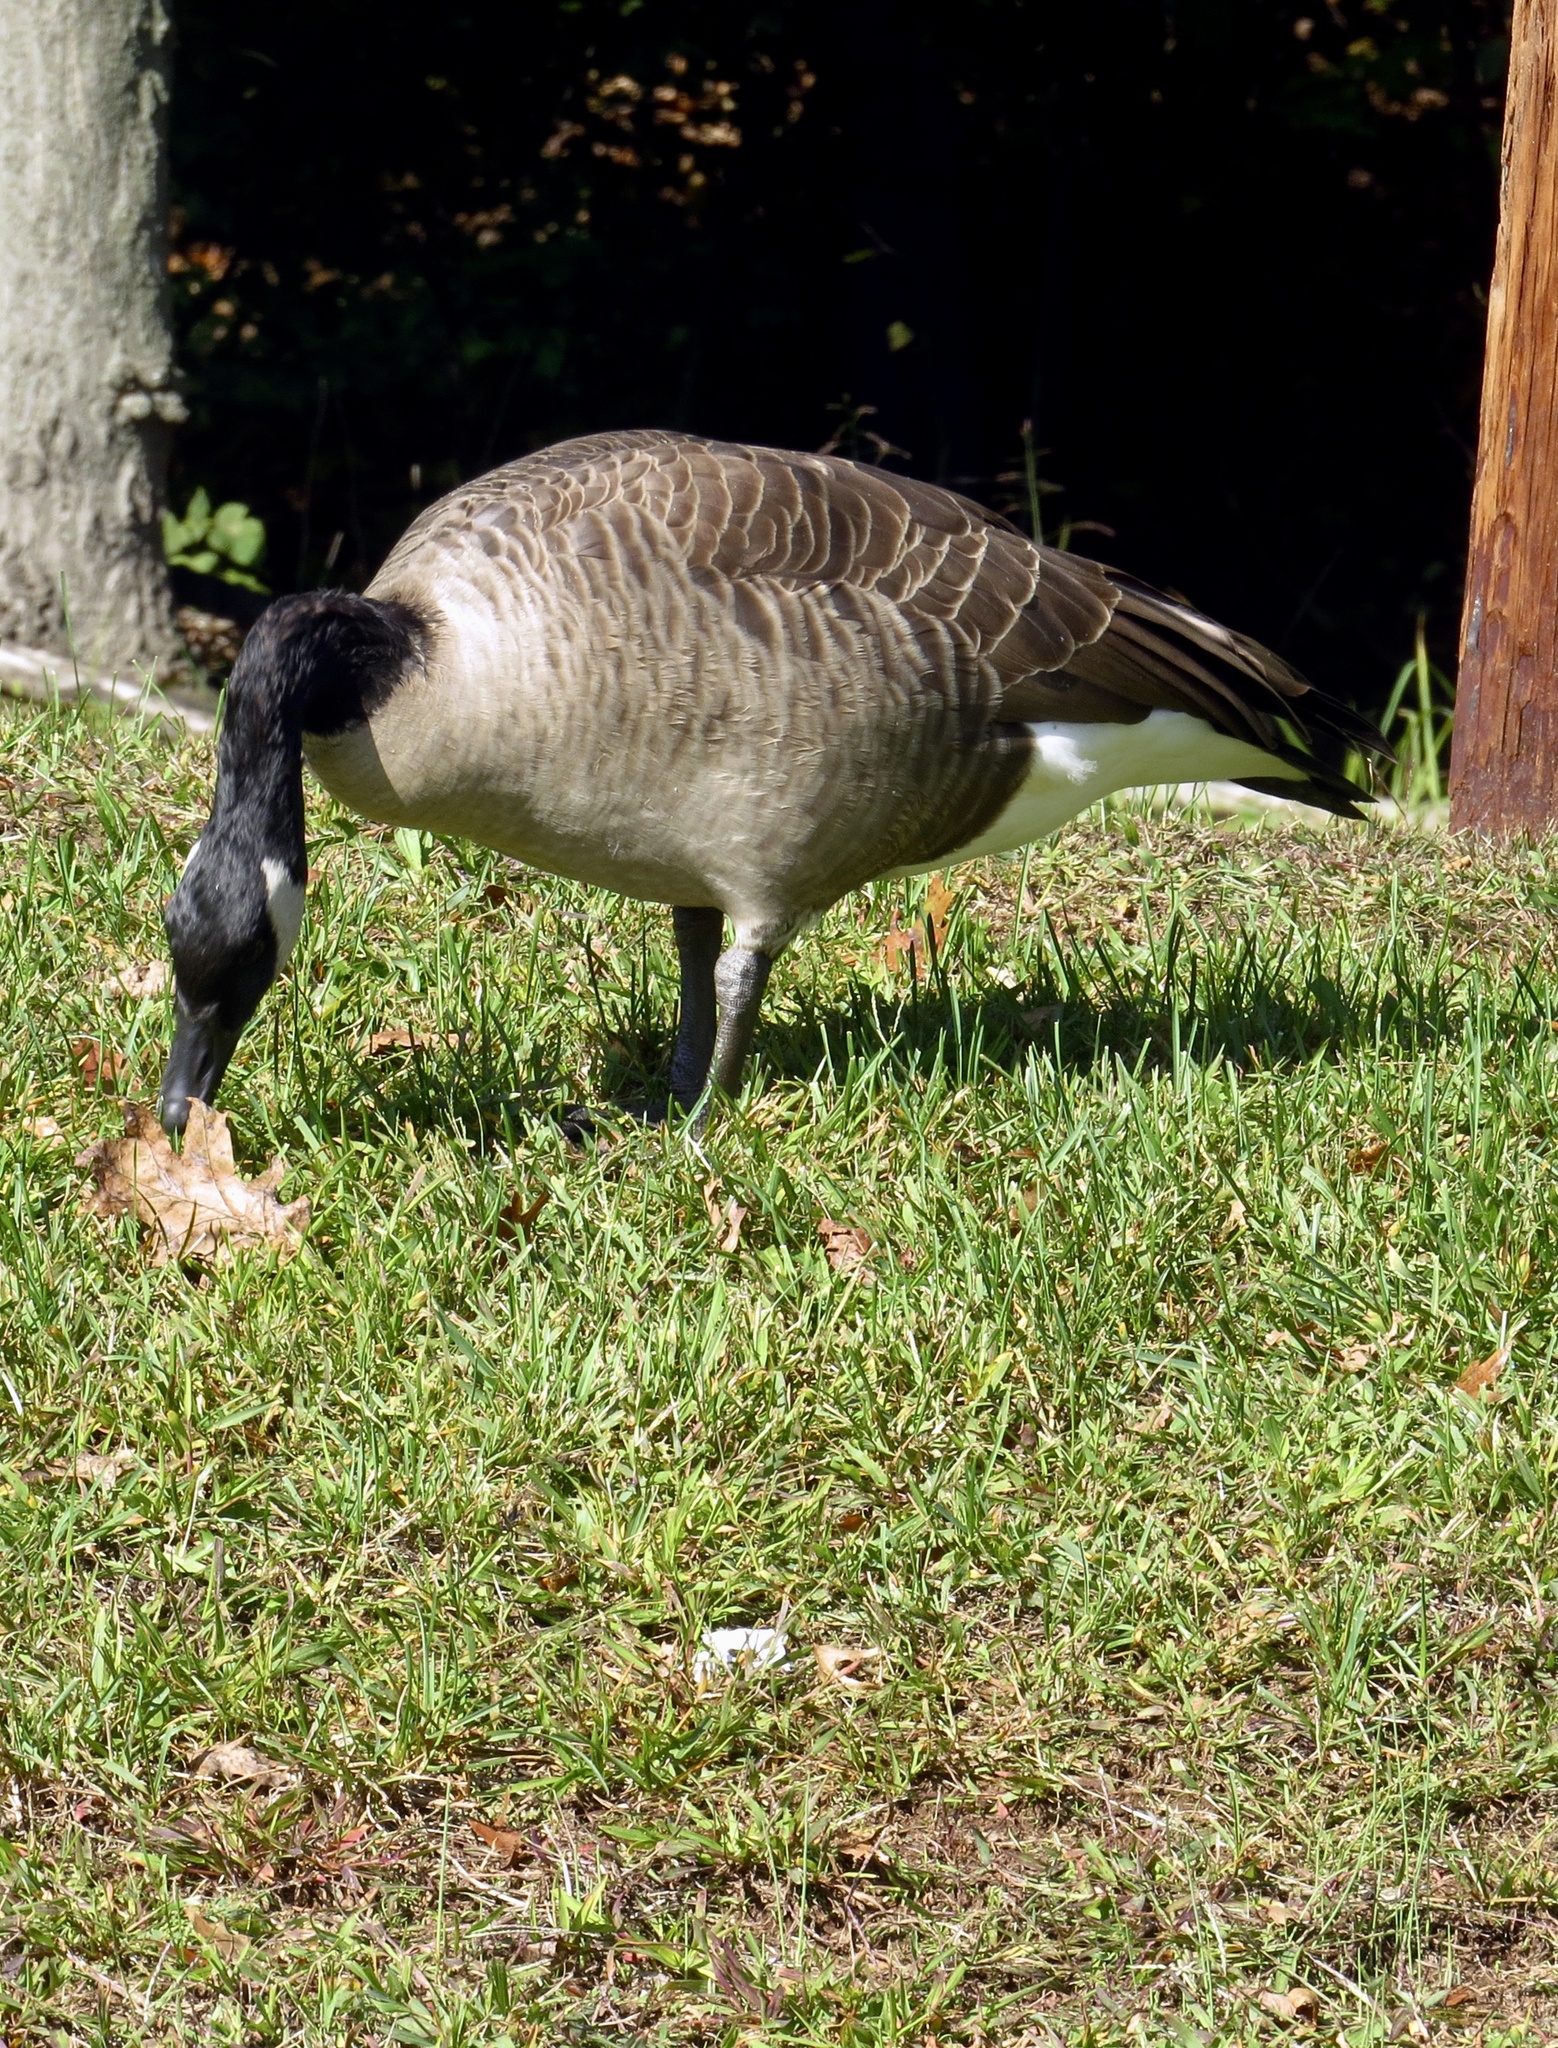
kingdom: Animalia
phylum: Chordata
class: Aves
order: Anseriformes
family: Anatidae
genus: Branta
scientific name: Branta canadensis
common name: Canada goose
